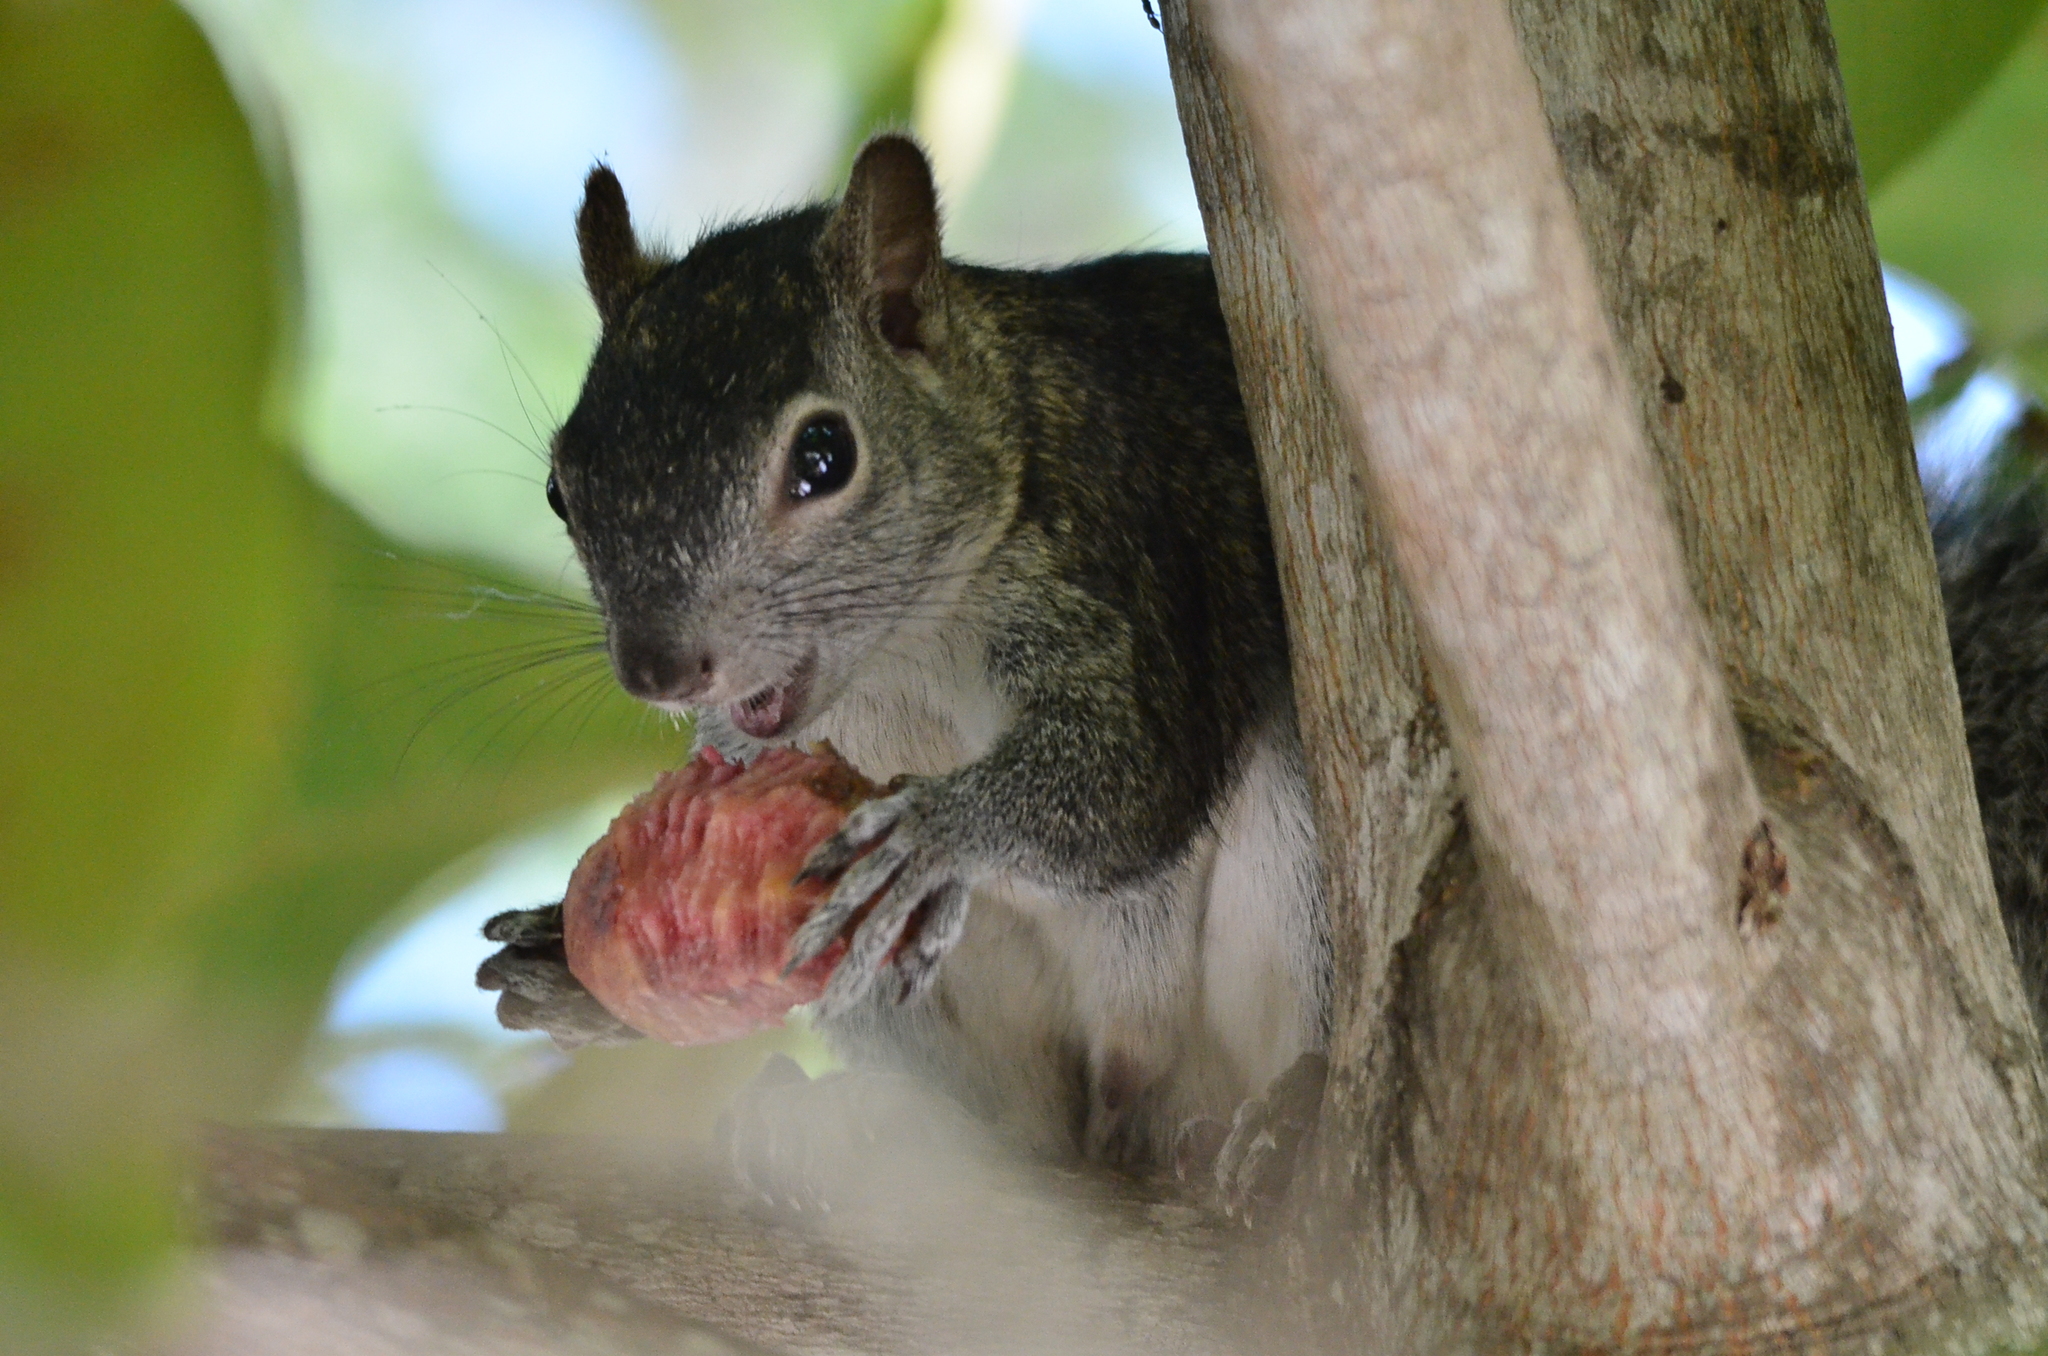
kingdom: Animalia
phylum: Chordata
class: Mammalia
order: Rodentia
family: Sciuridae
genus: Sciurus
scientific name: Sciurus colliaei
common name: Collie's squirrel
